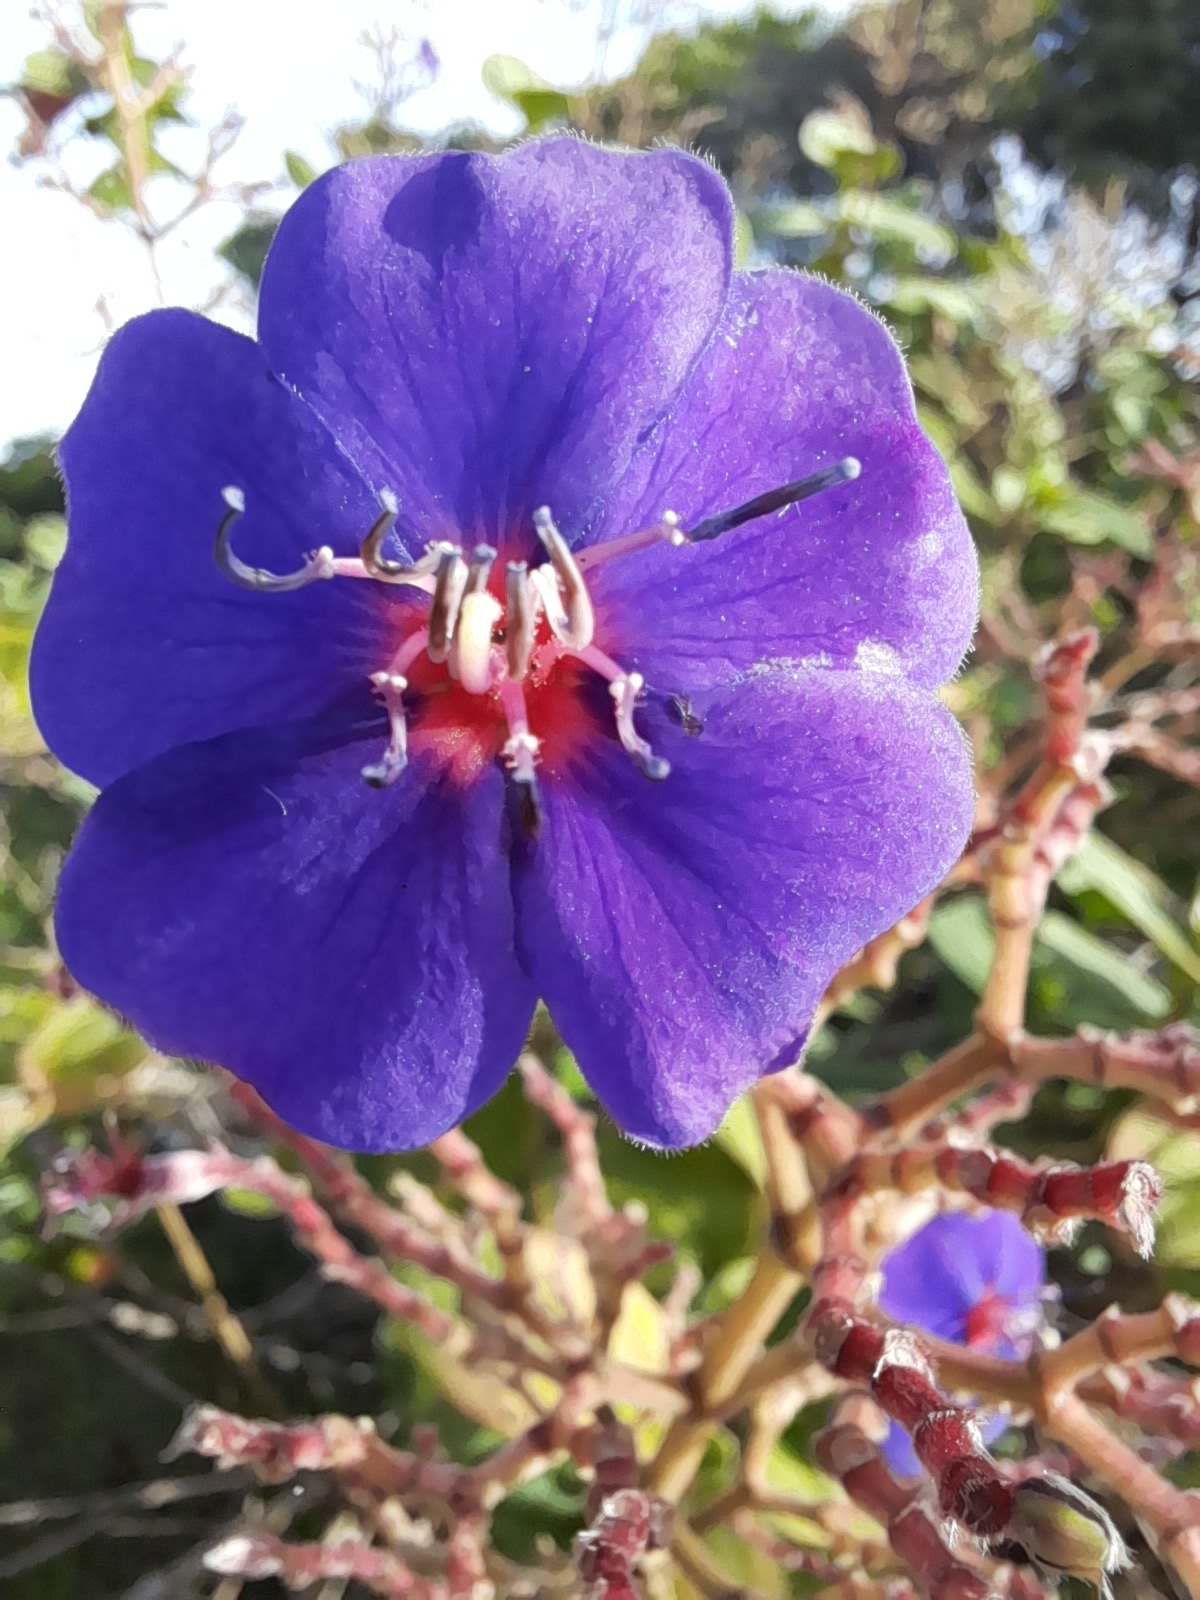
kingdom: Plantae
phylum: Tracheophyta
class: Magnoliopsida
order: Myrtales
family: Melastomataceae
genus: Pleroma
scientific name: Pleroma heteromallum
